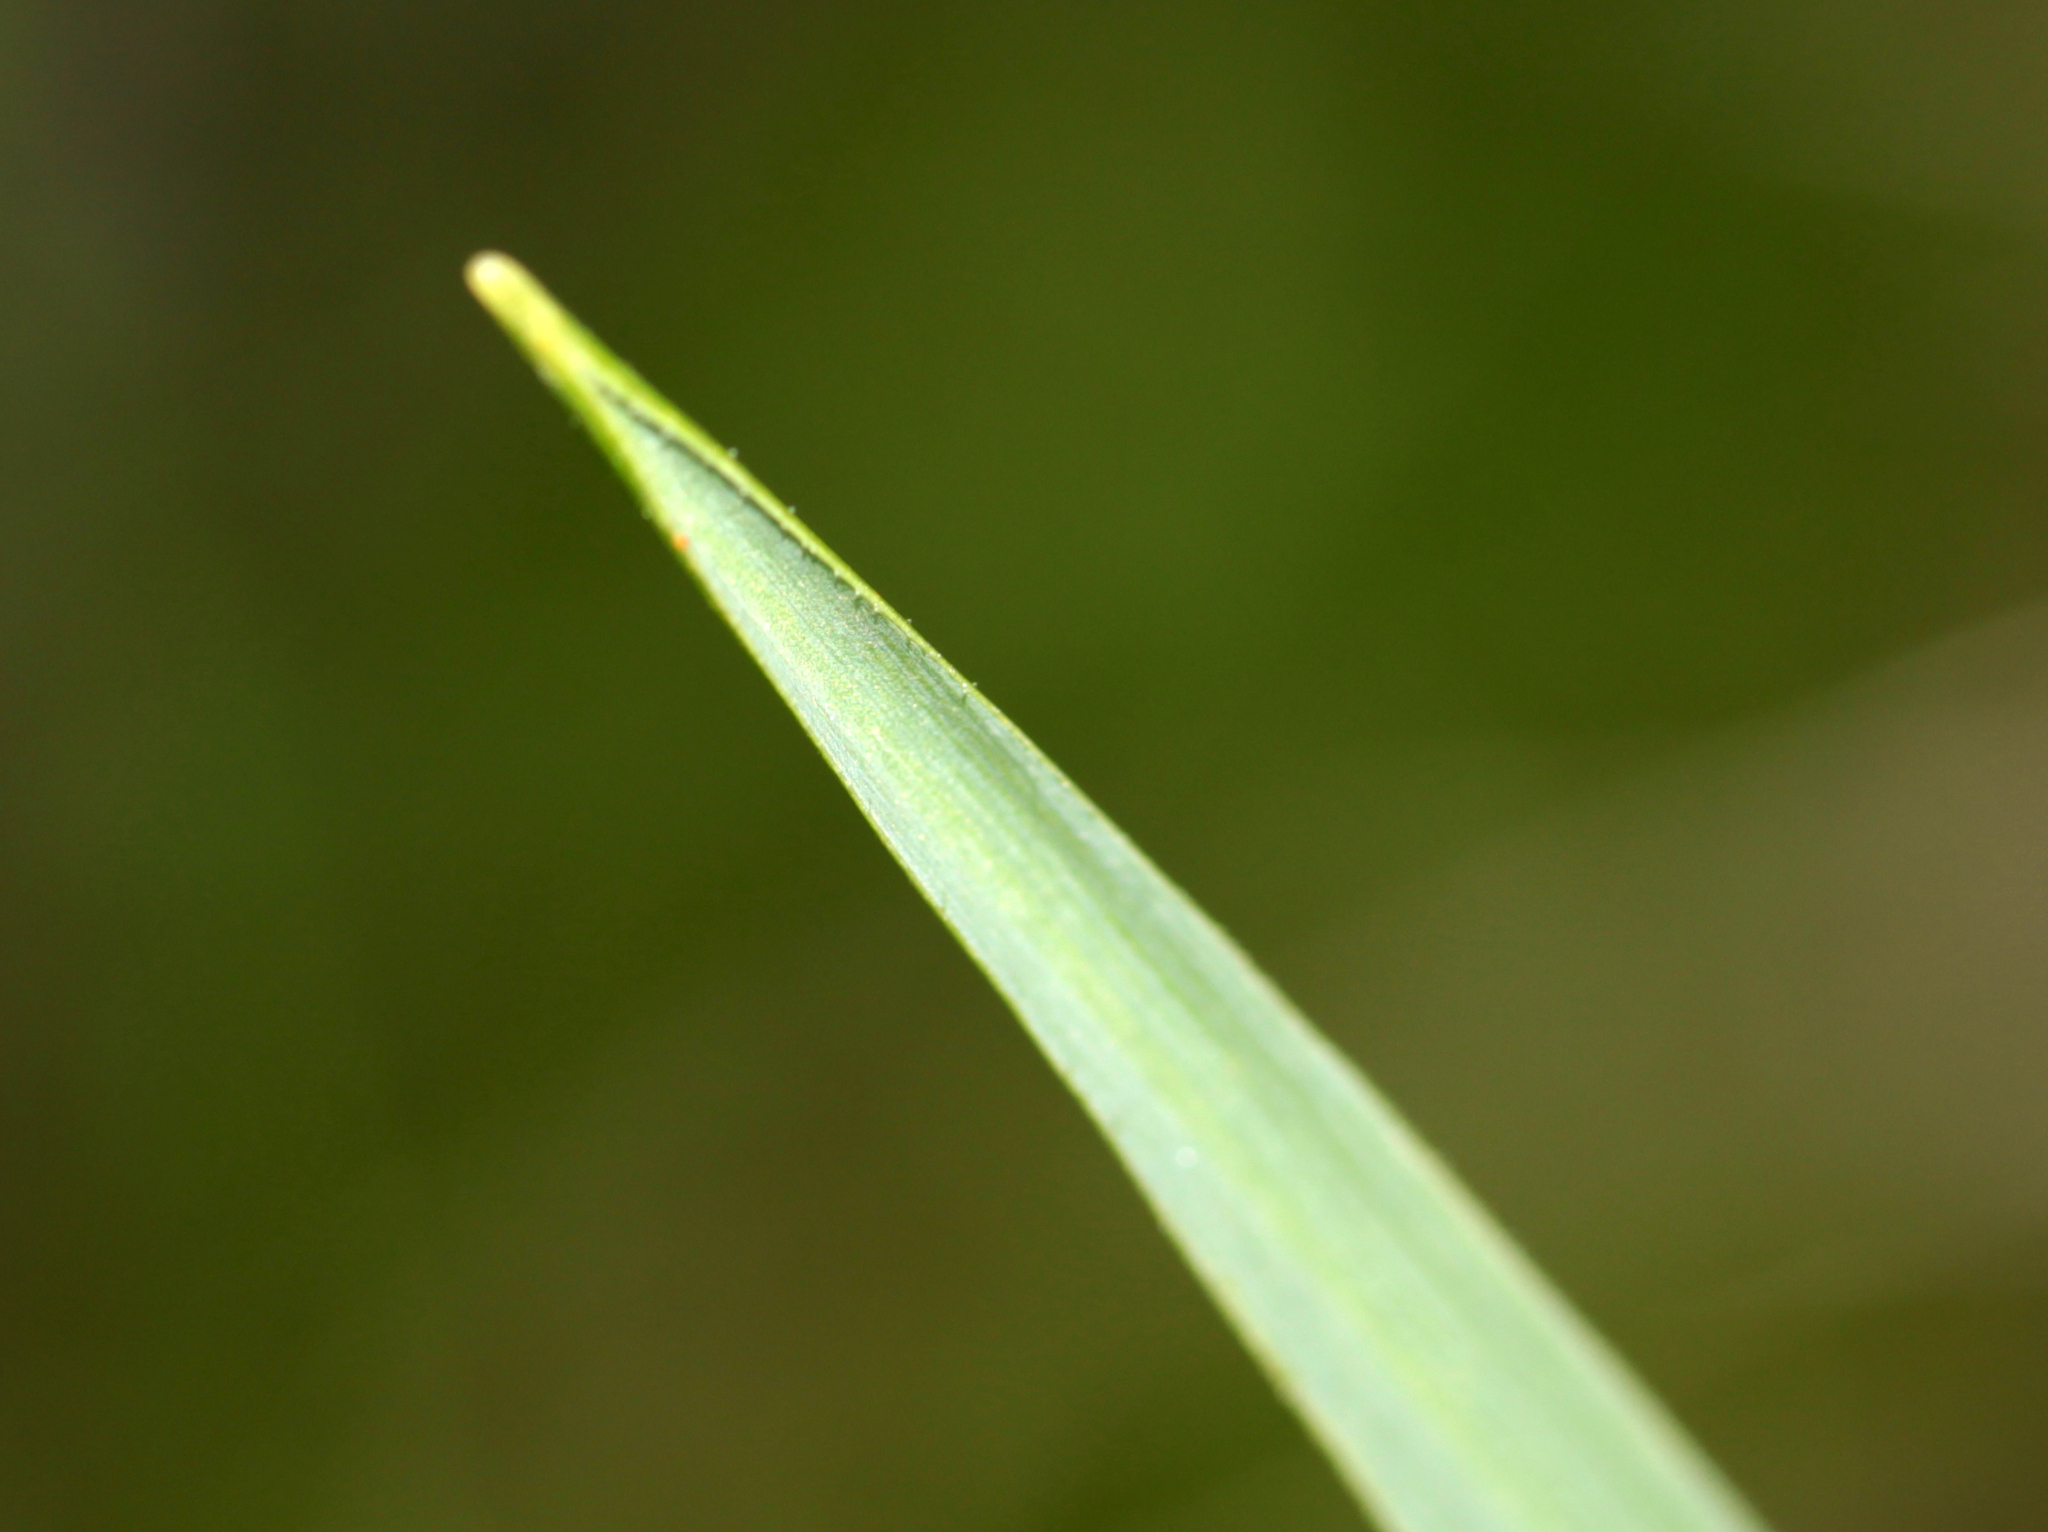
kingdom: Plantae
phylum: Tracheophyta
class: Liliopsida
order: Asparagales
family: Asparagaceae
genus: Chlorogalum
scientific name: Chlorogalum pomeridianum
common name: Amole
